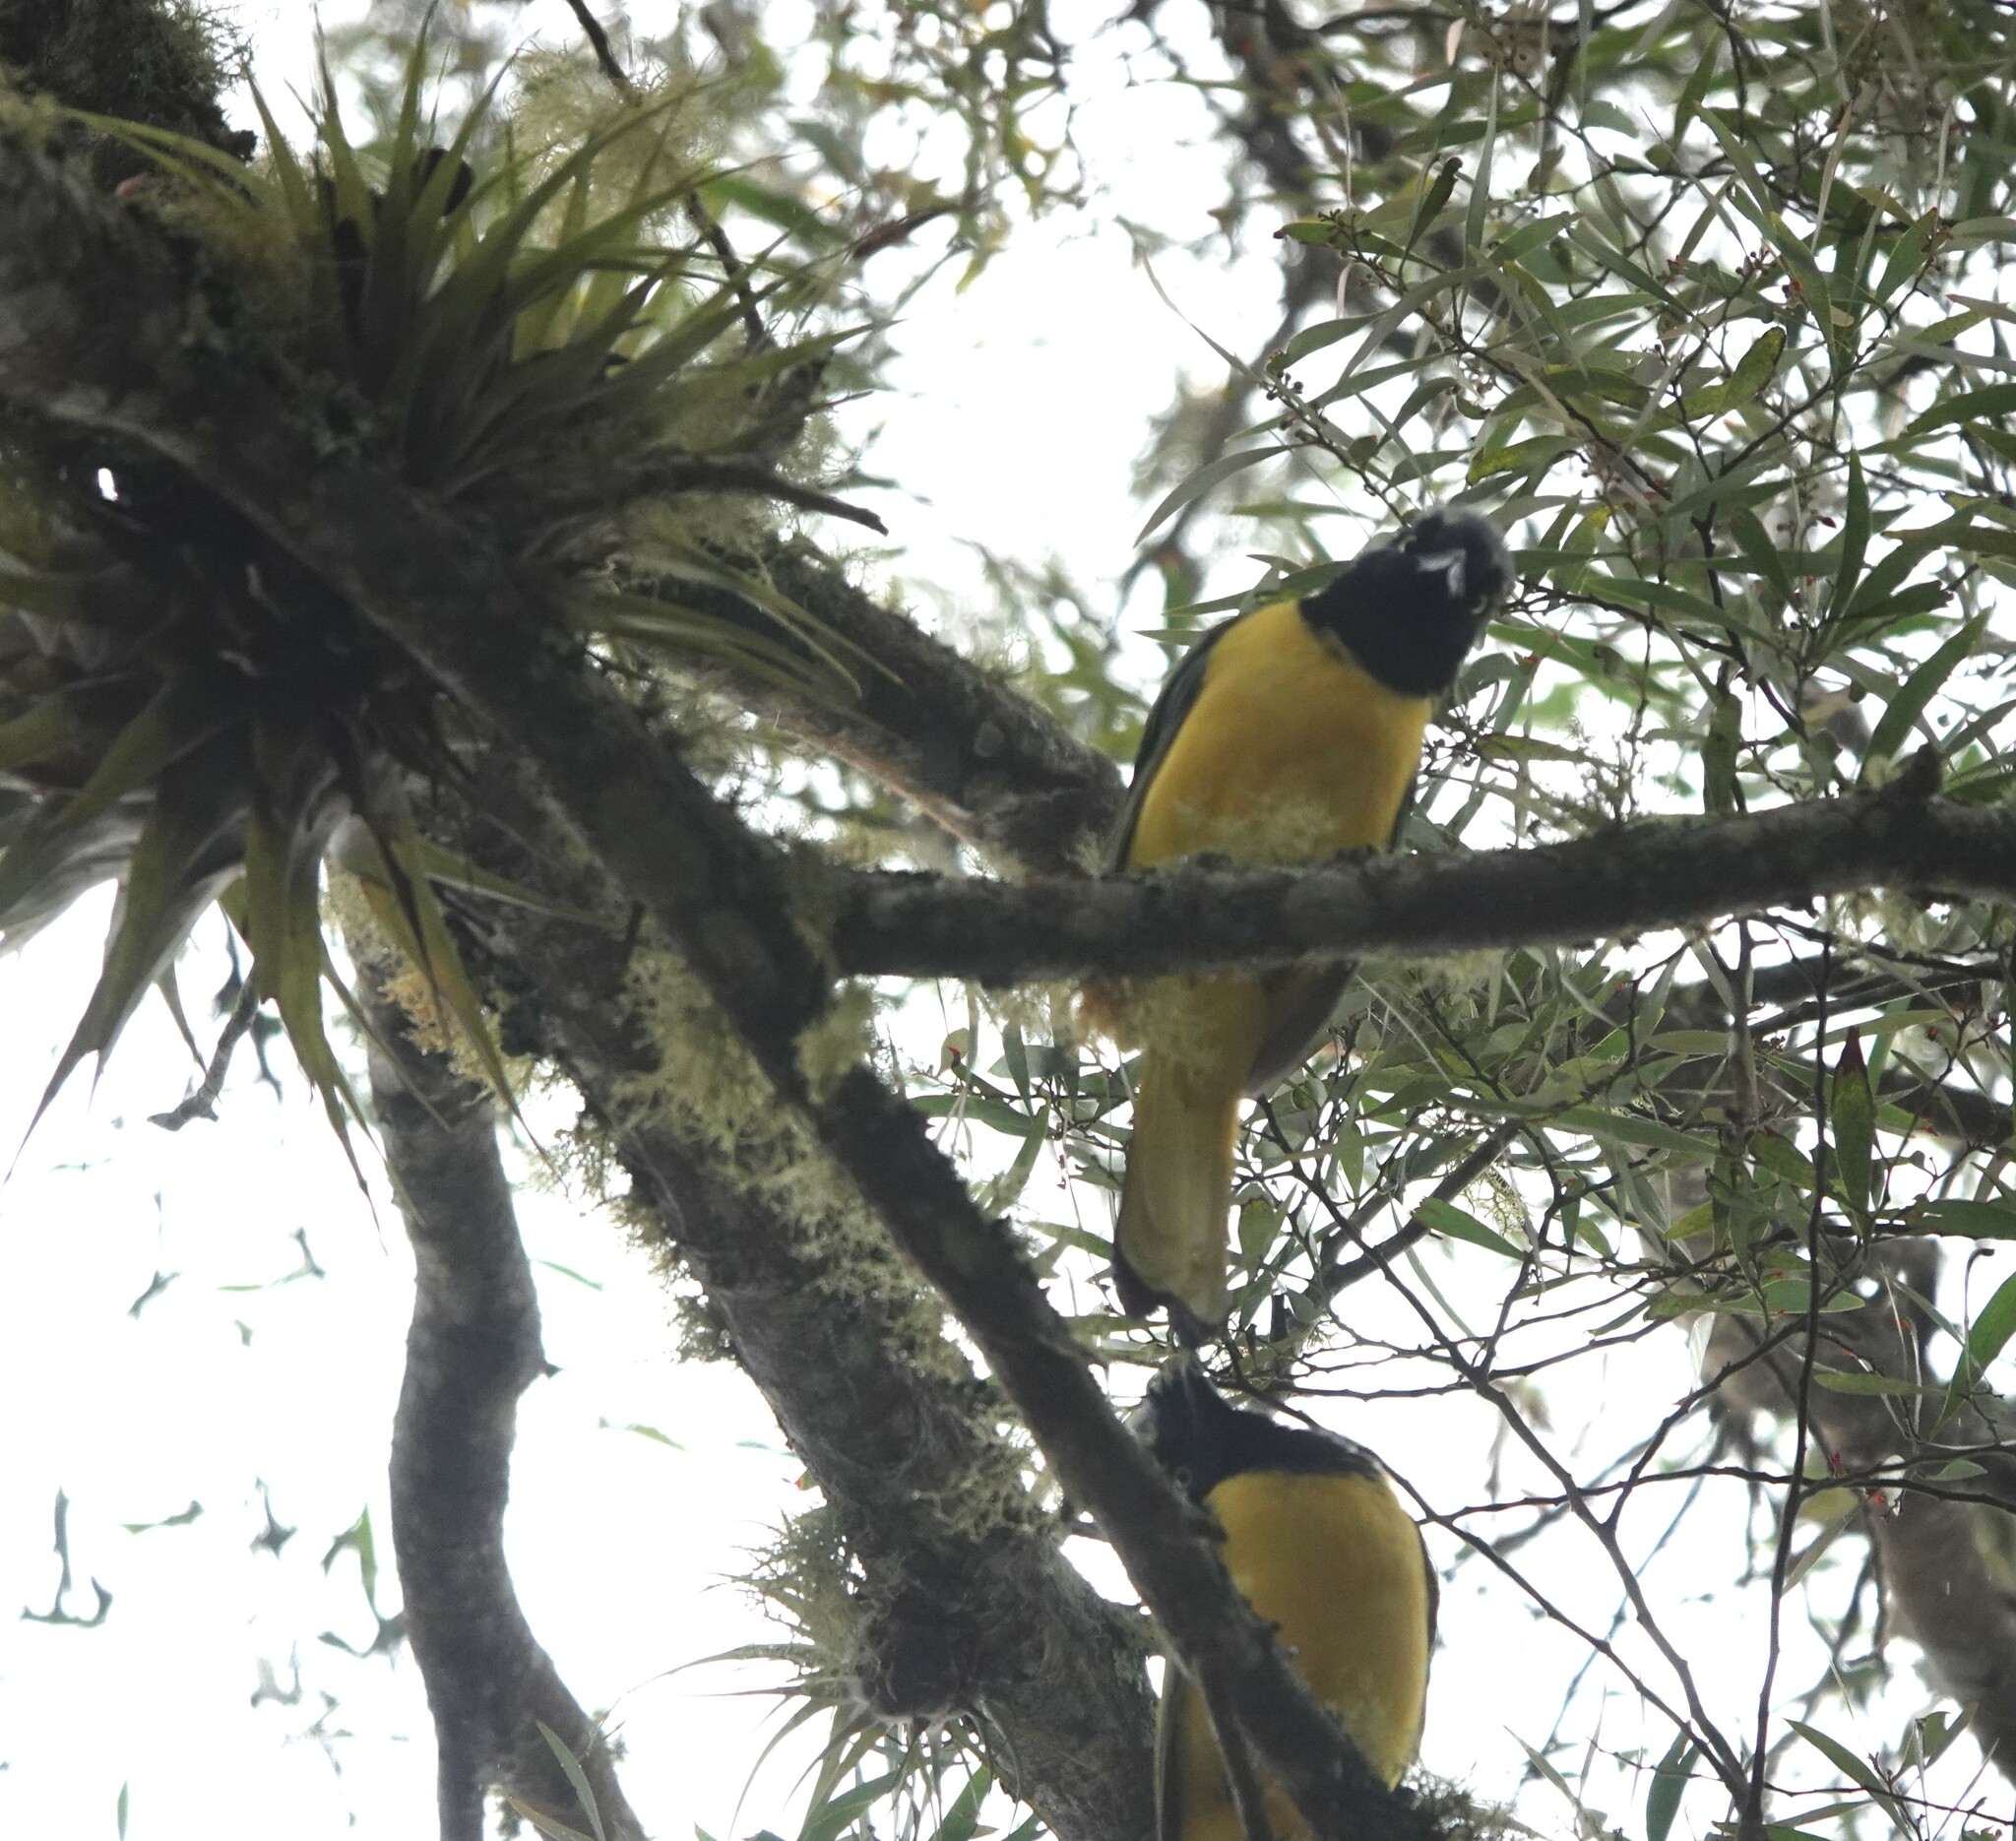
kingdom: Animalia
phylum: Chordata
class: Aves
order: Passeriformes
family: Corvidae
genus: Cyanocorax
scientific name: Cyanocorax yncas
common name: Green jay
